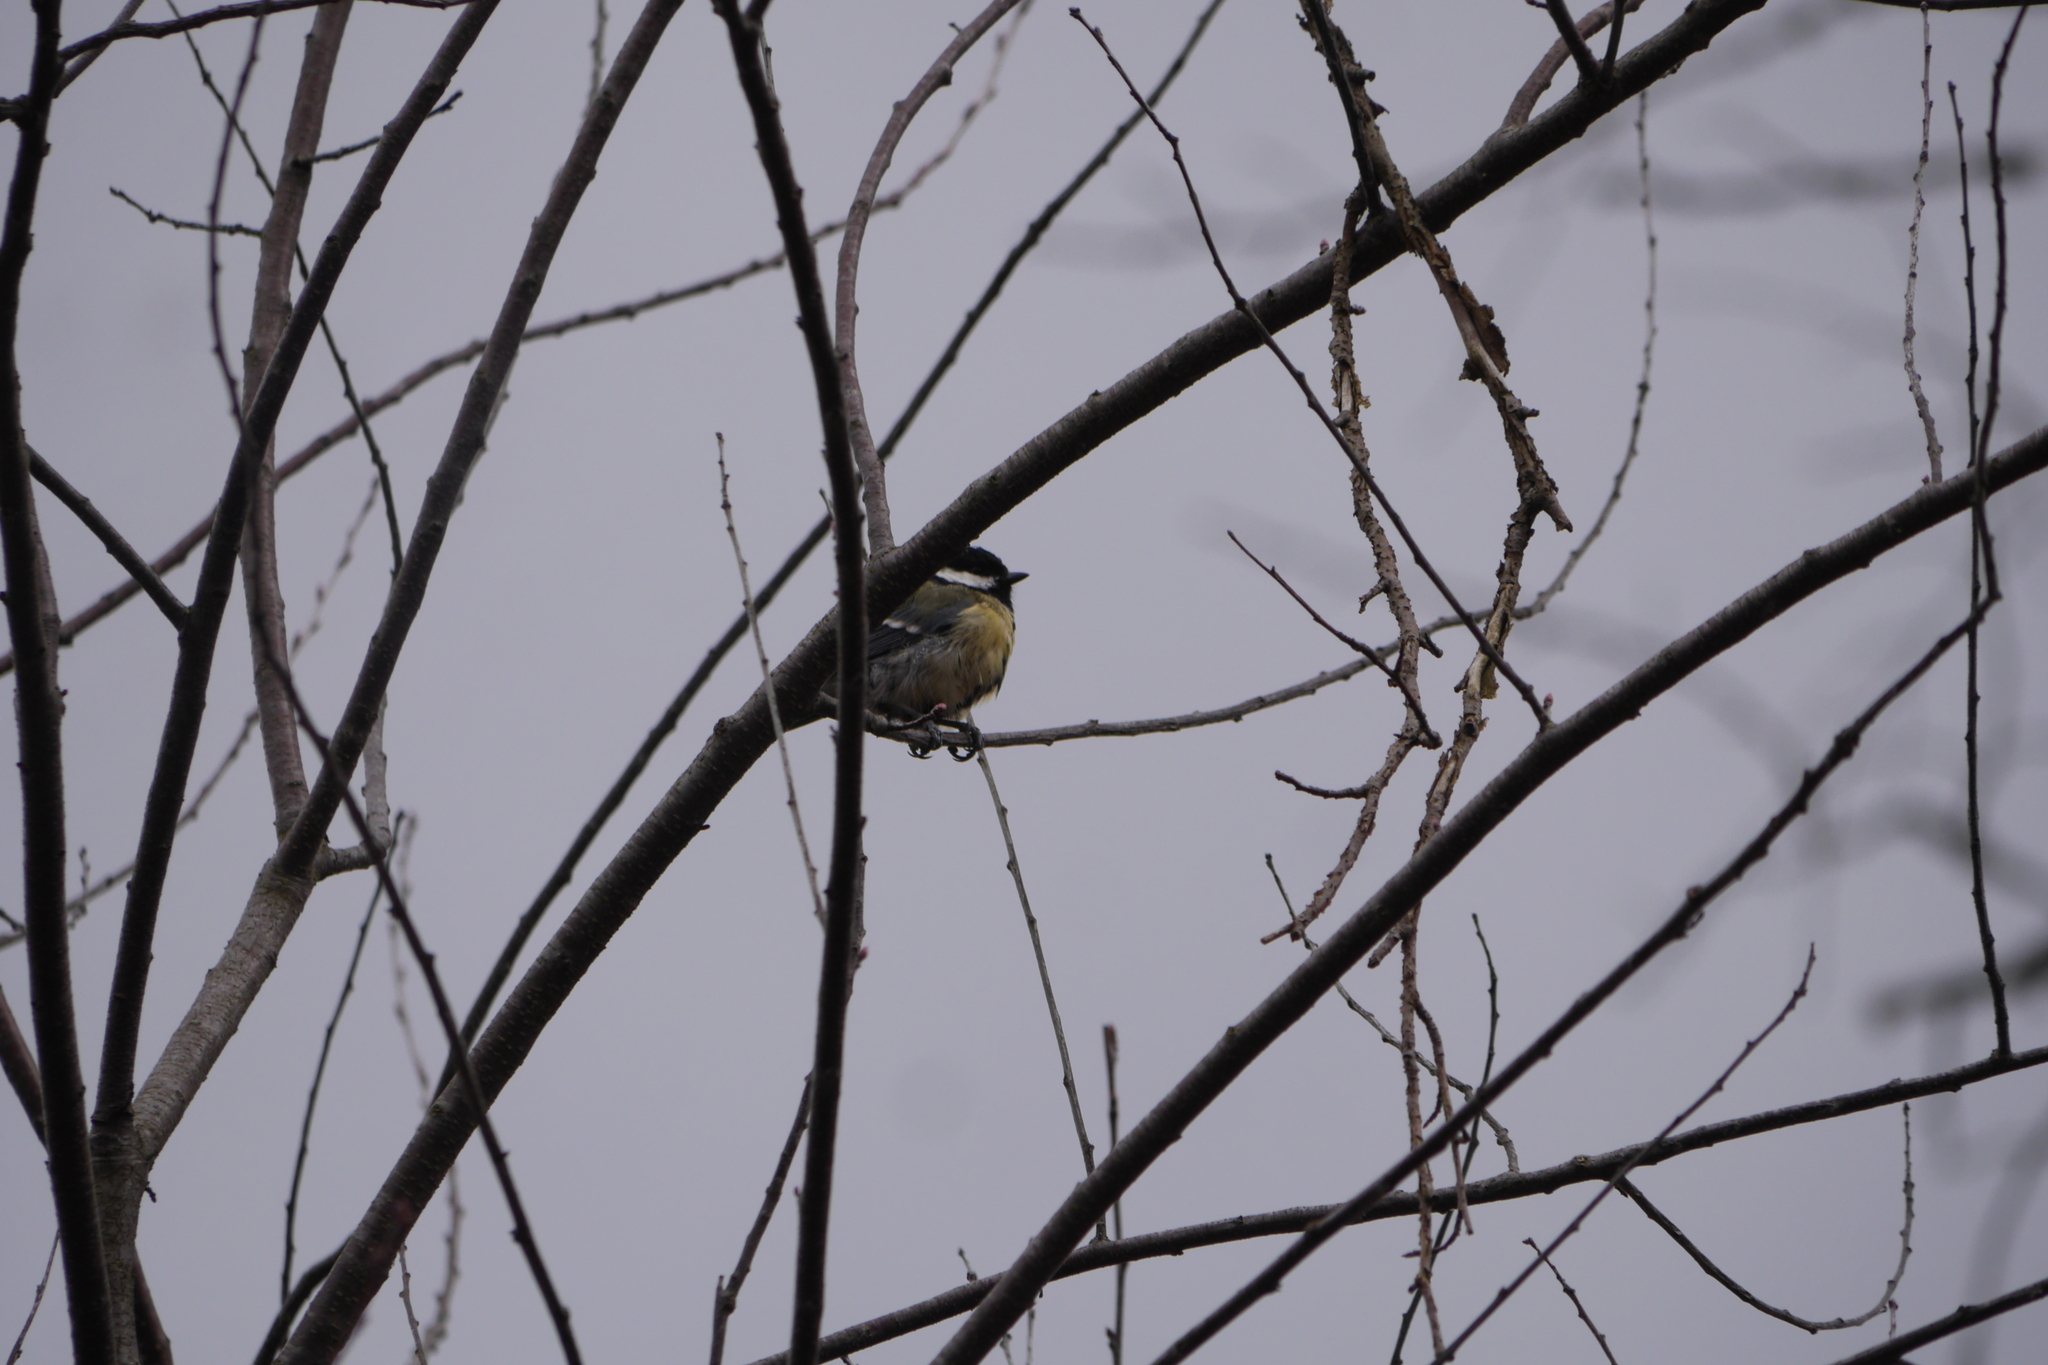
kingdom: Animalia
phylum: Chordata
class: Aves
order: Passeriformes
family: Paridae
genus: Parus
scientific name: Parus major
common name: Great tit
